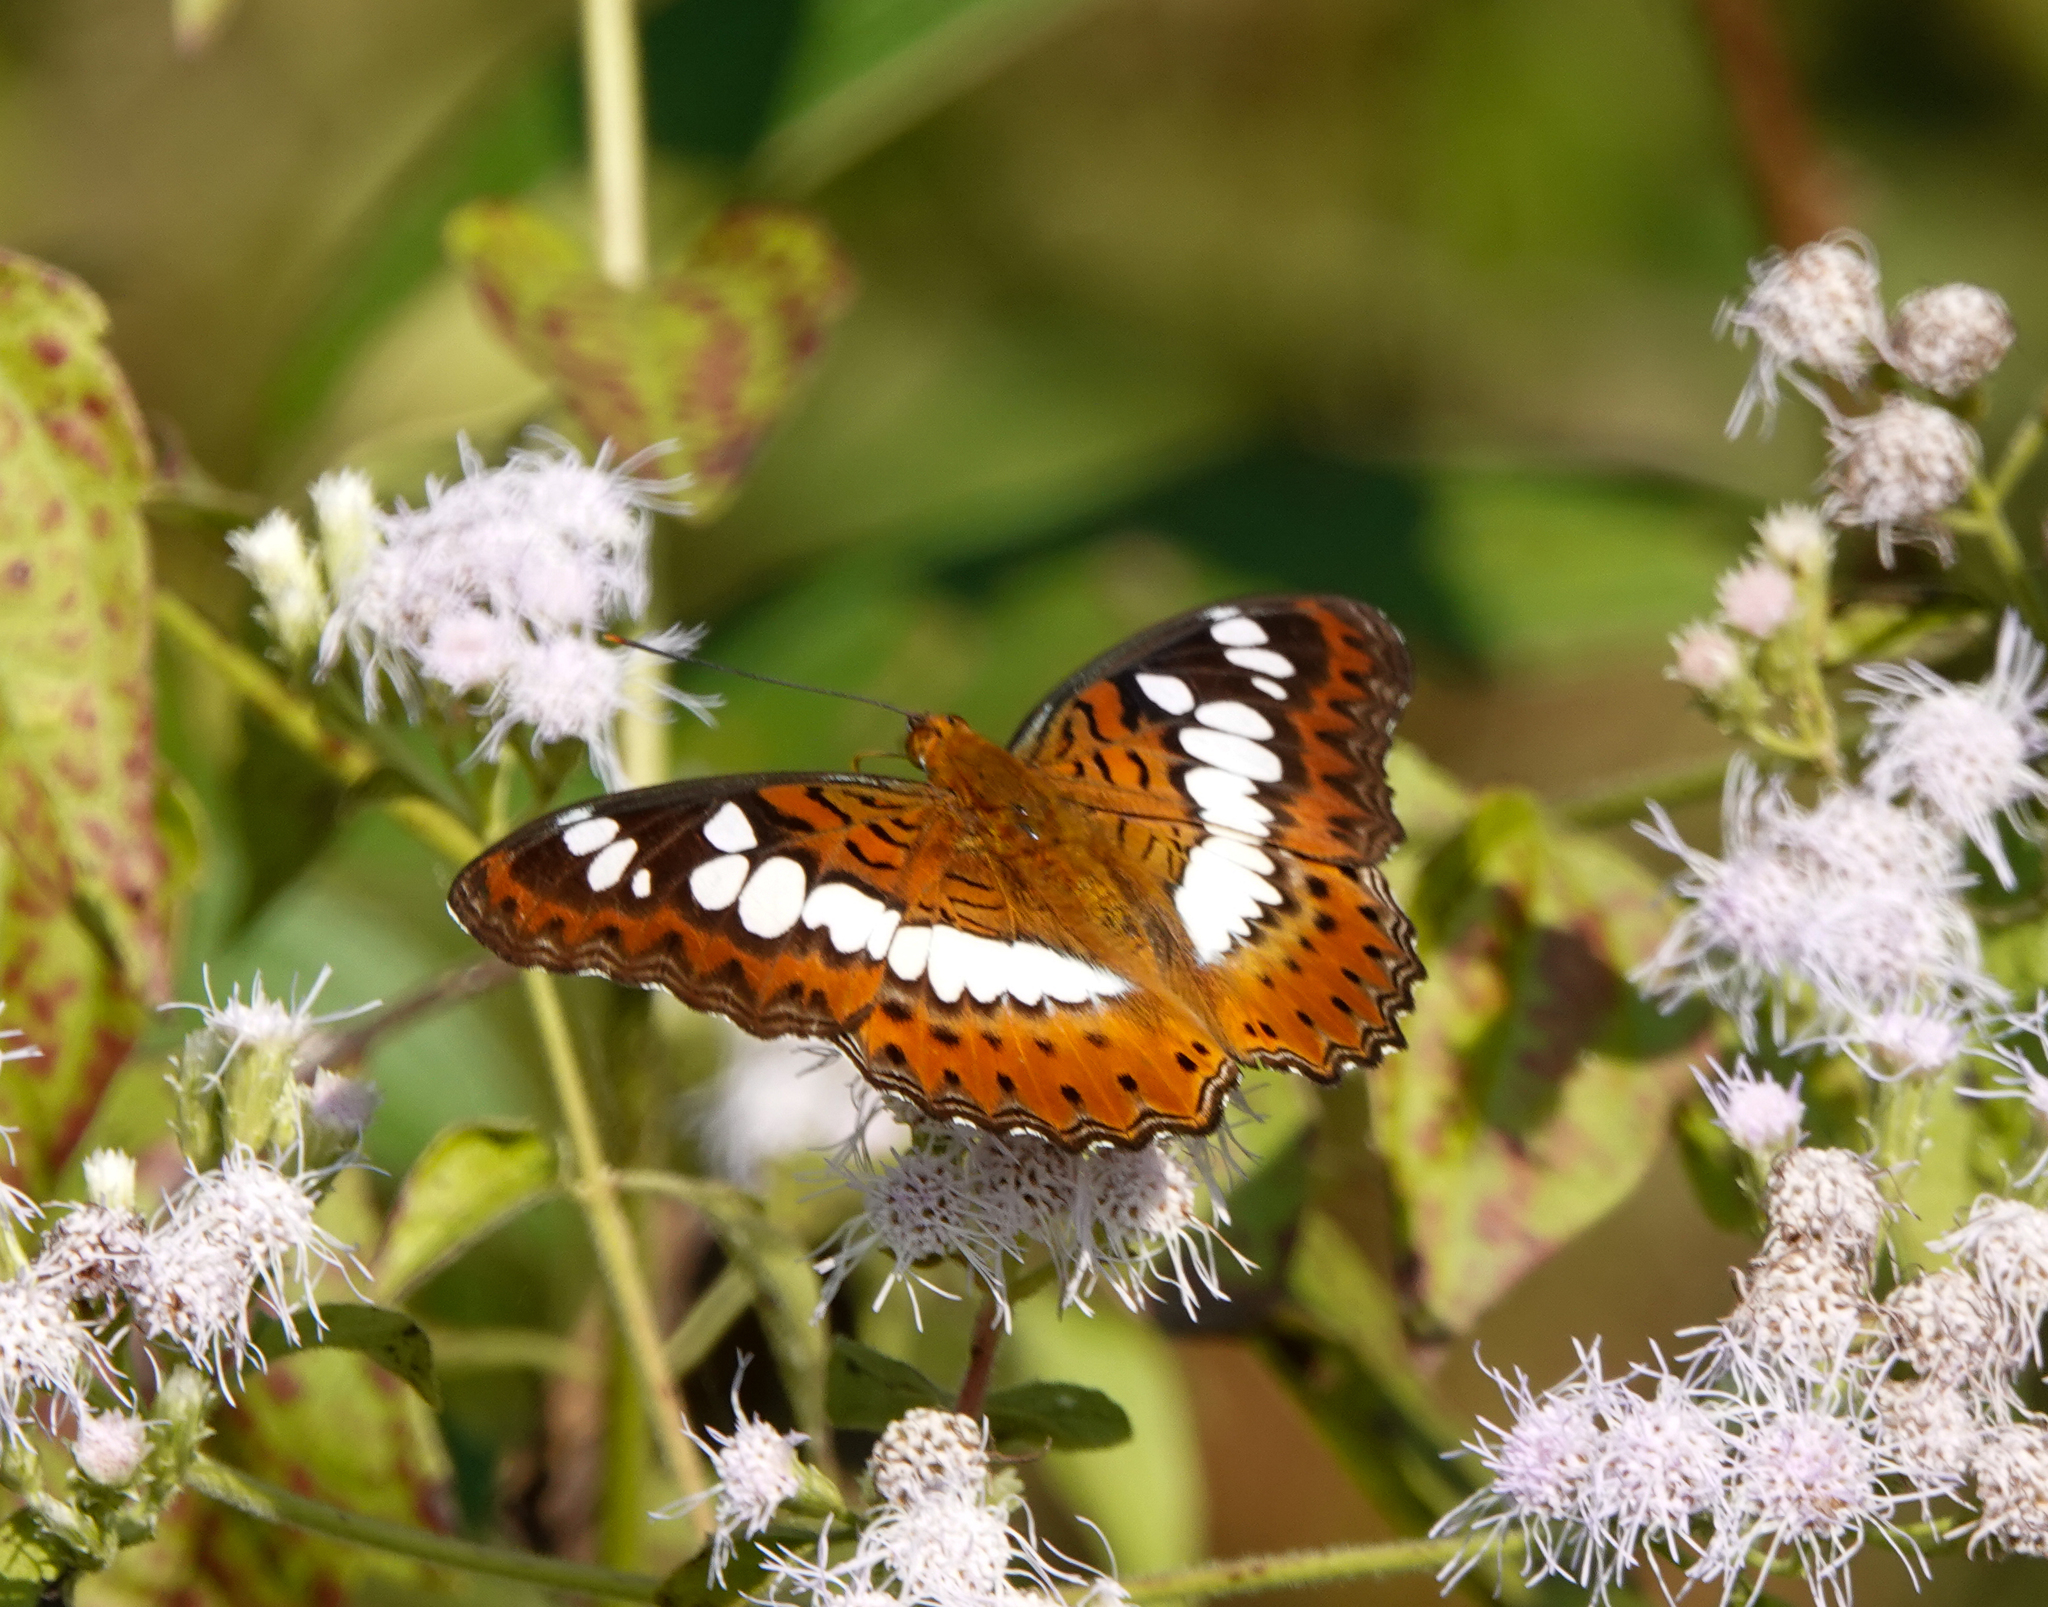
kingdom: Animalia
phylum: Arthropoda
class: Insecta
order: Lepidoptera
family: Nymphalidae
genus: Limenitis
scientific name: Limenitis Moduza procris
